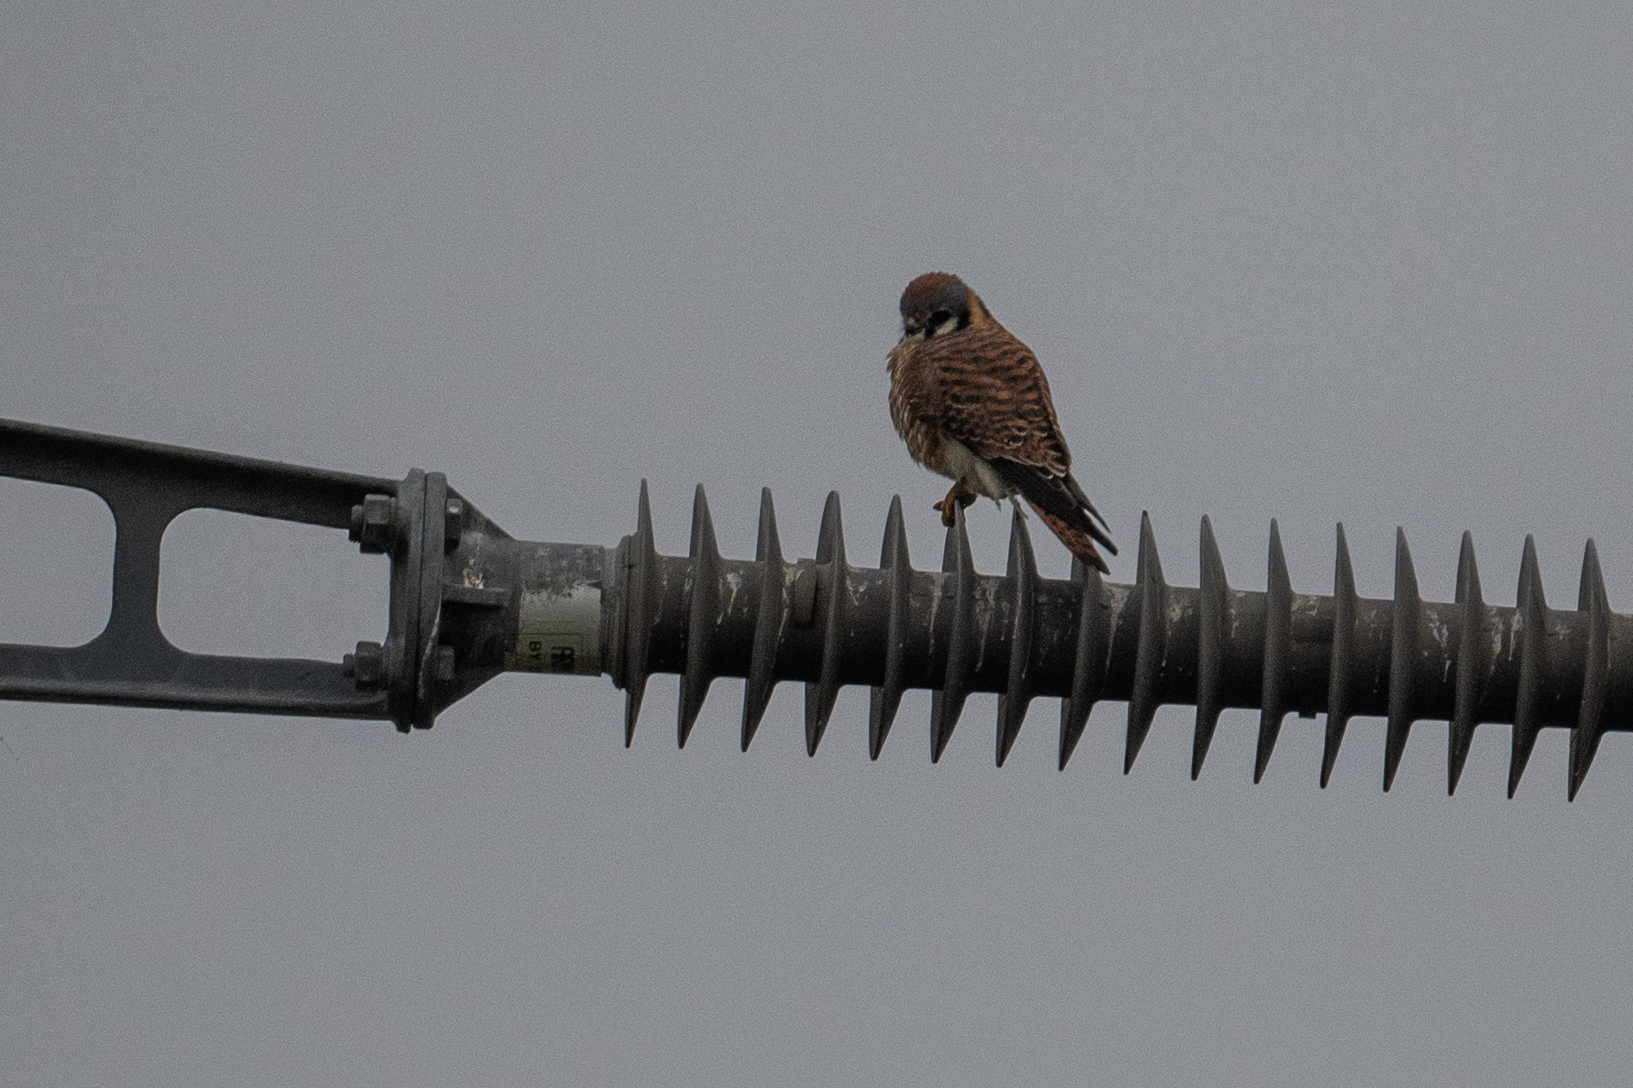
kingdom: Animalia
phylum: Chordata
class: Aves
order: Falconiformes
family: Falconidae
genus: Falco
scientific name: Falco sparverius
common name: American kestrel
